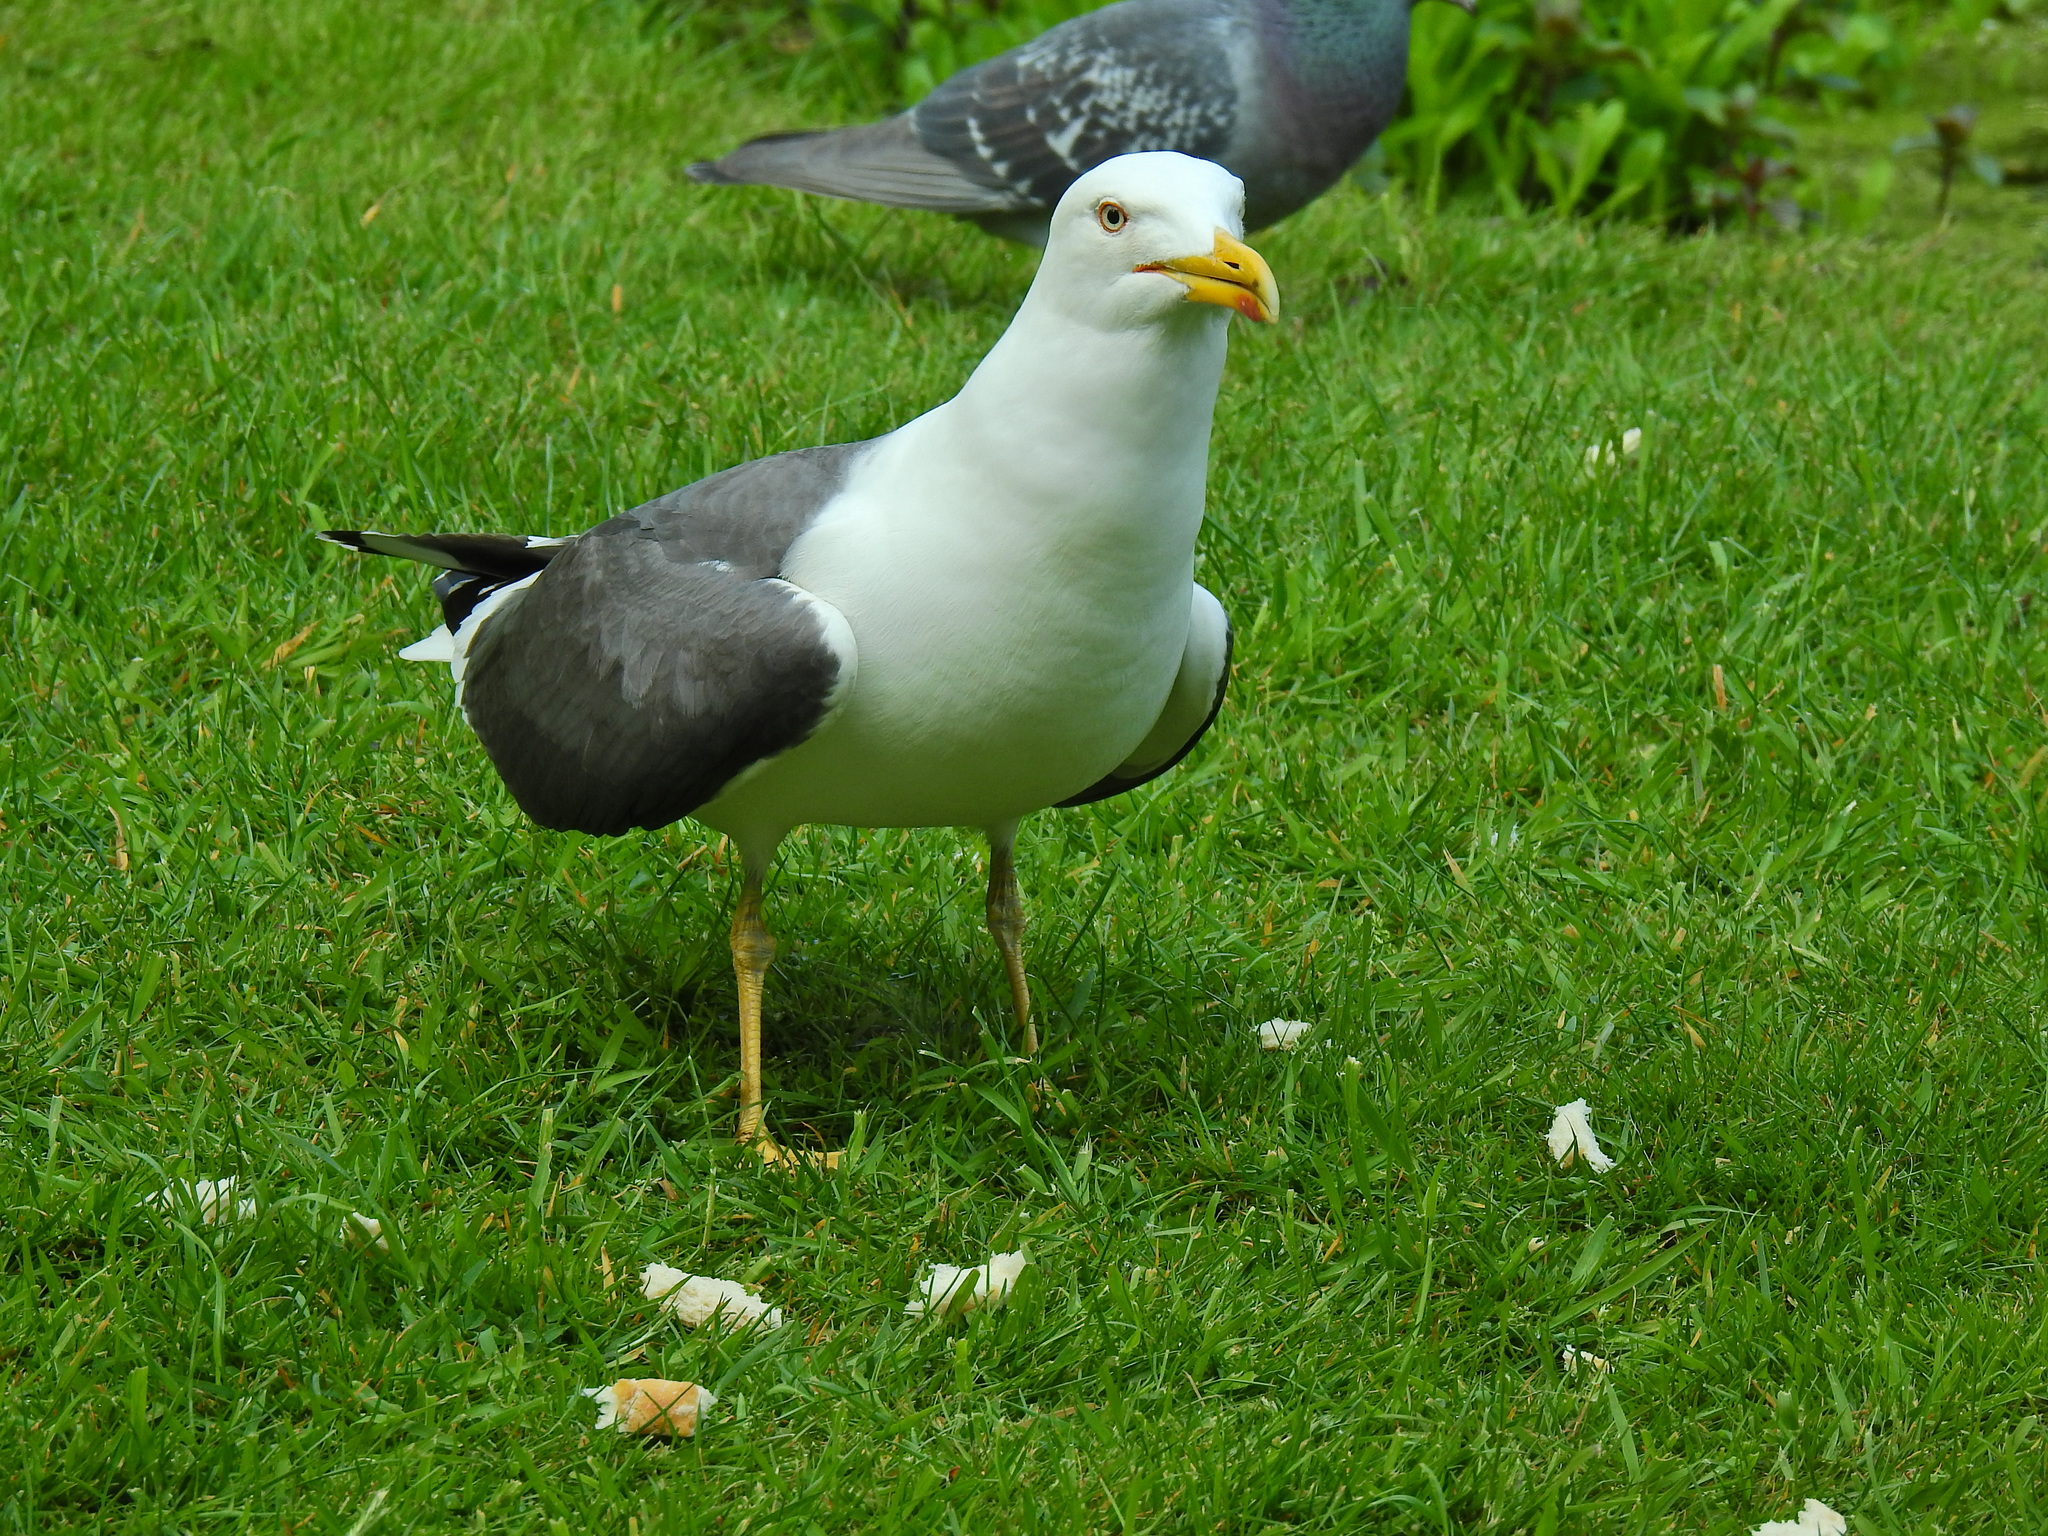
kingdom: Animalia
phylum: Chordata
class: Aves
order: Charadriiformes
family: Laridae
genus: Larus
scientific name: Larus fuscus
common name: Lesser black-backed gull
